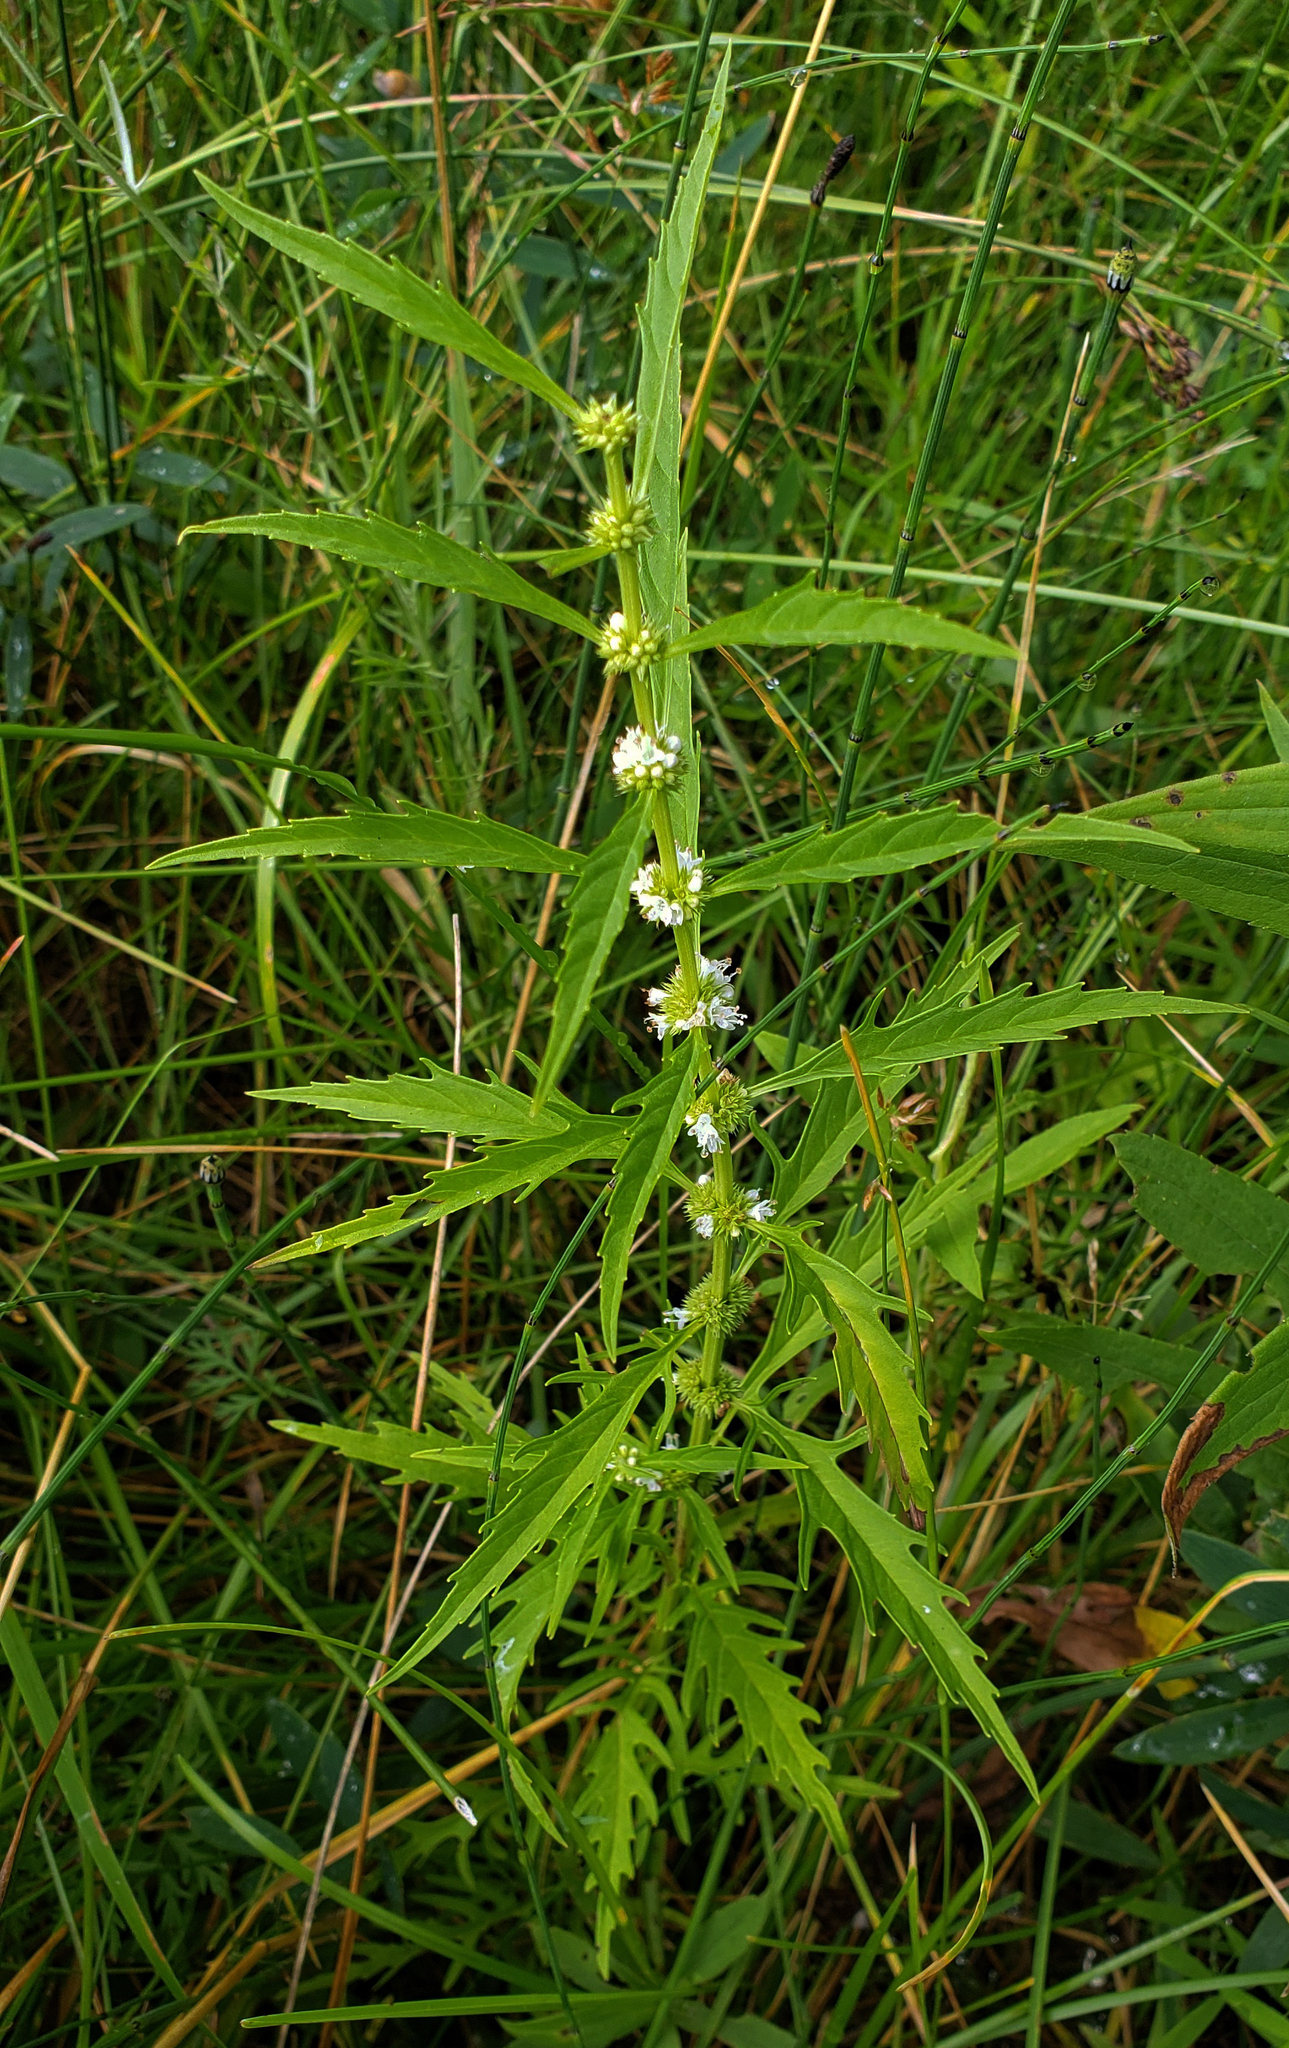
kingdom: Plantae
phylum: Tracheophyta
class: Magnoliopsida
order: Lamiales
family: Lamiaceae
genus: Lycopus
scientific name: Lycopus americanus
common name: American bugleweed
